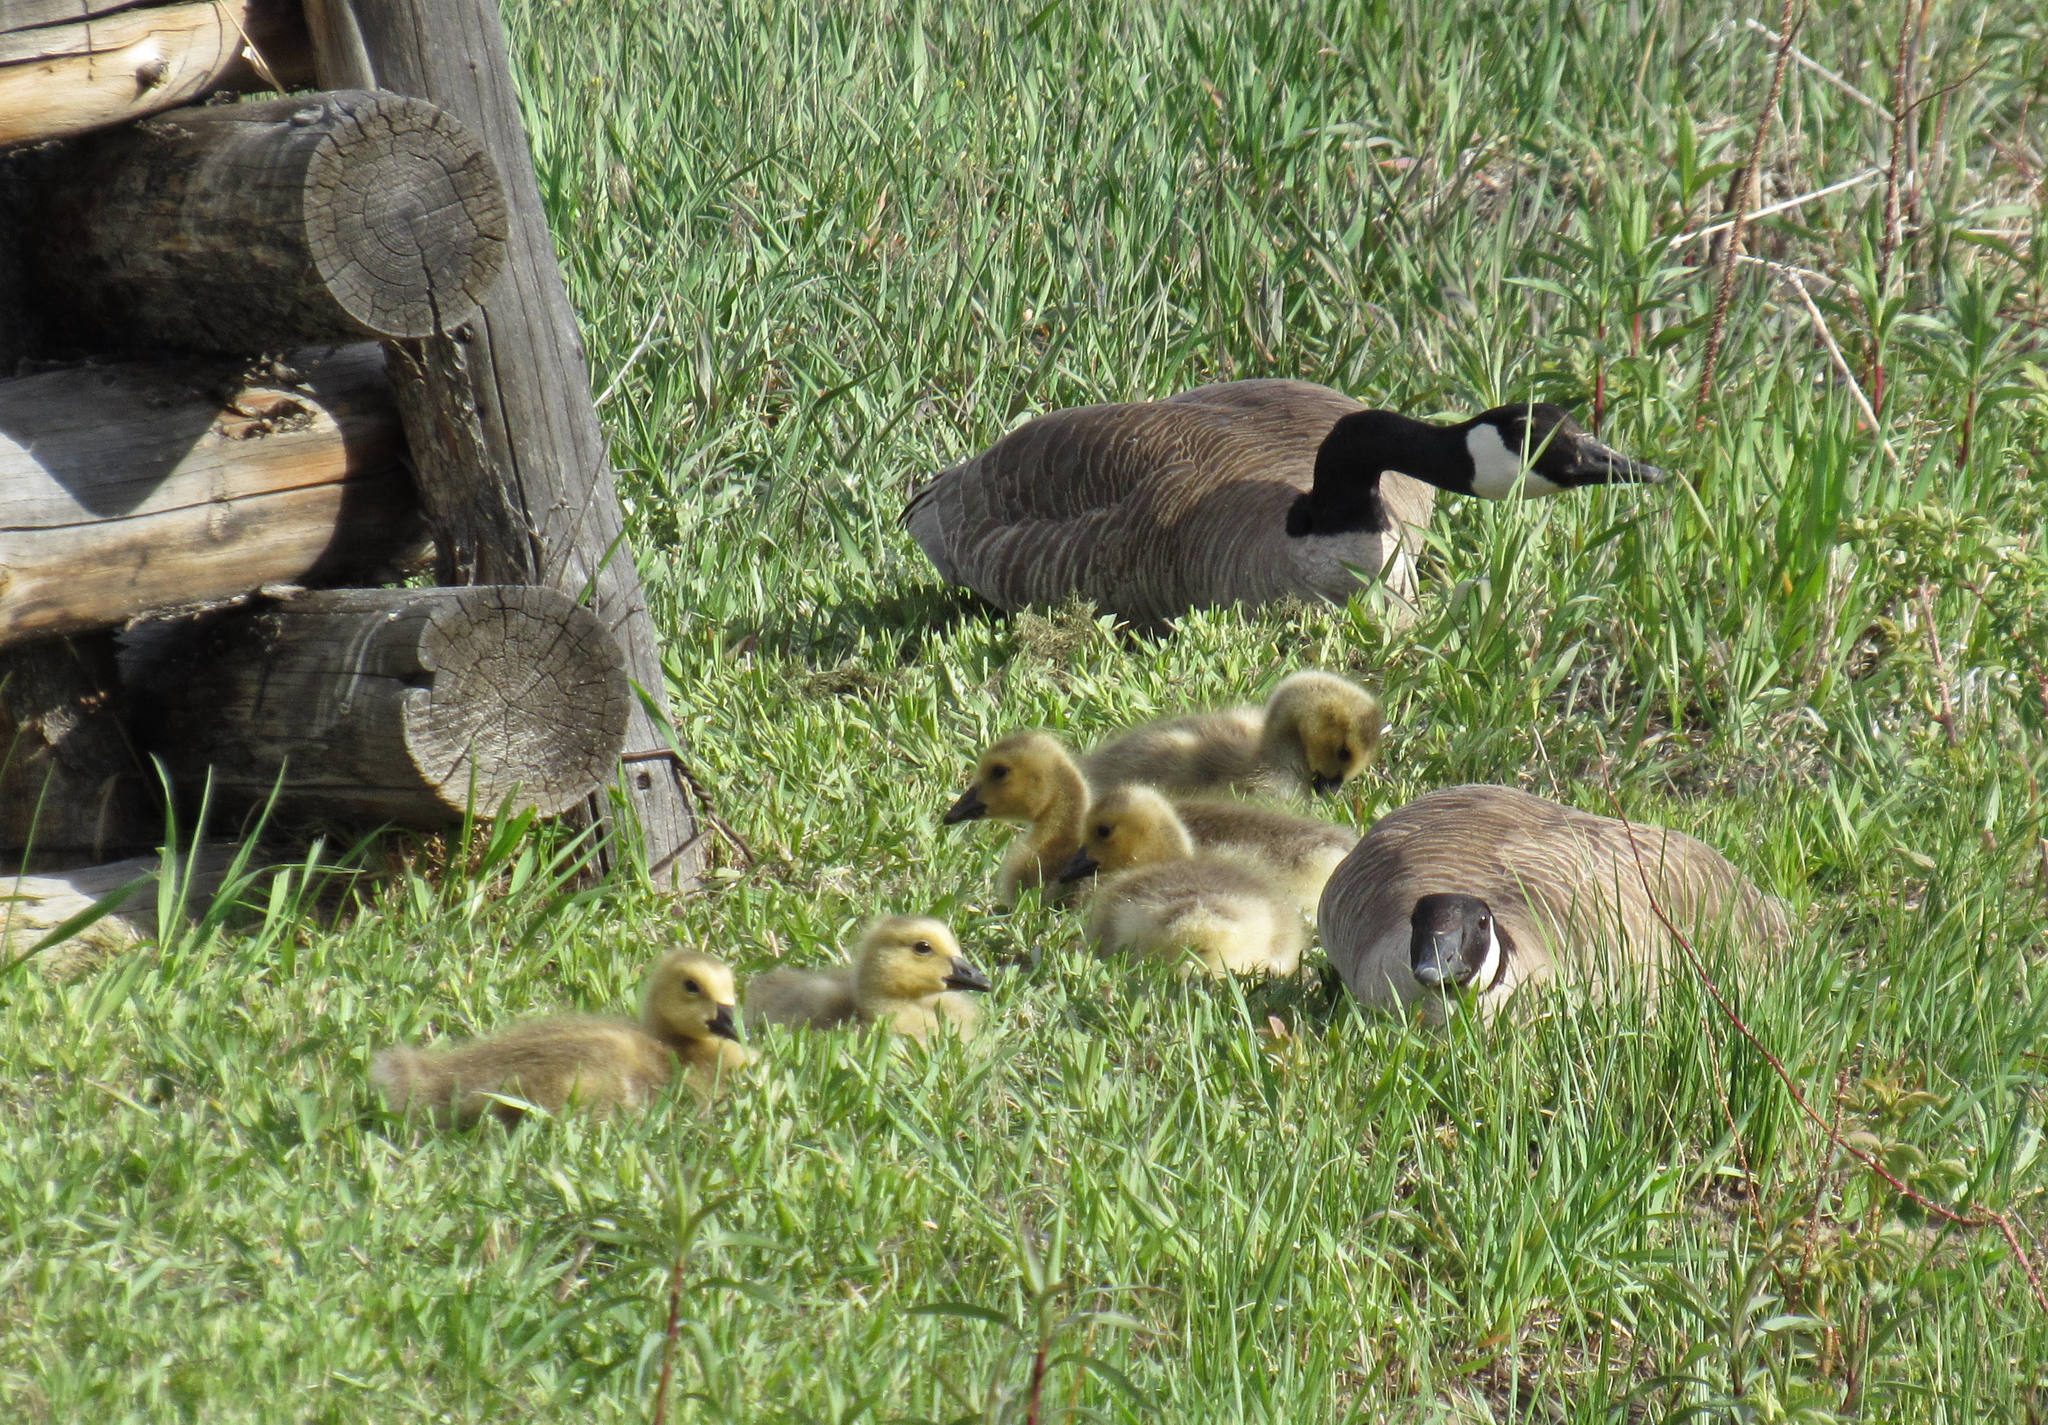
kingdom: Animalia
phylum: Chordata
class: Aves
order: Anseriformes
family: Anatidae
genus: Branta
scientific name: Branta canadensis
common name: Canada goose
